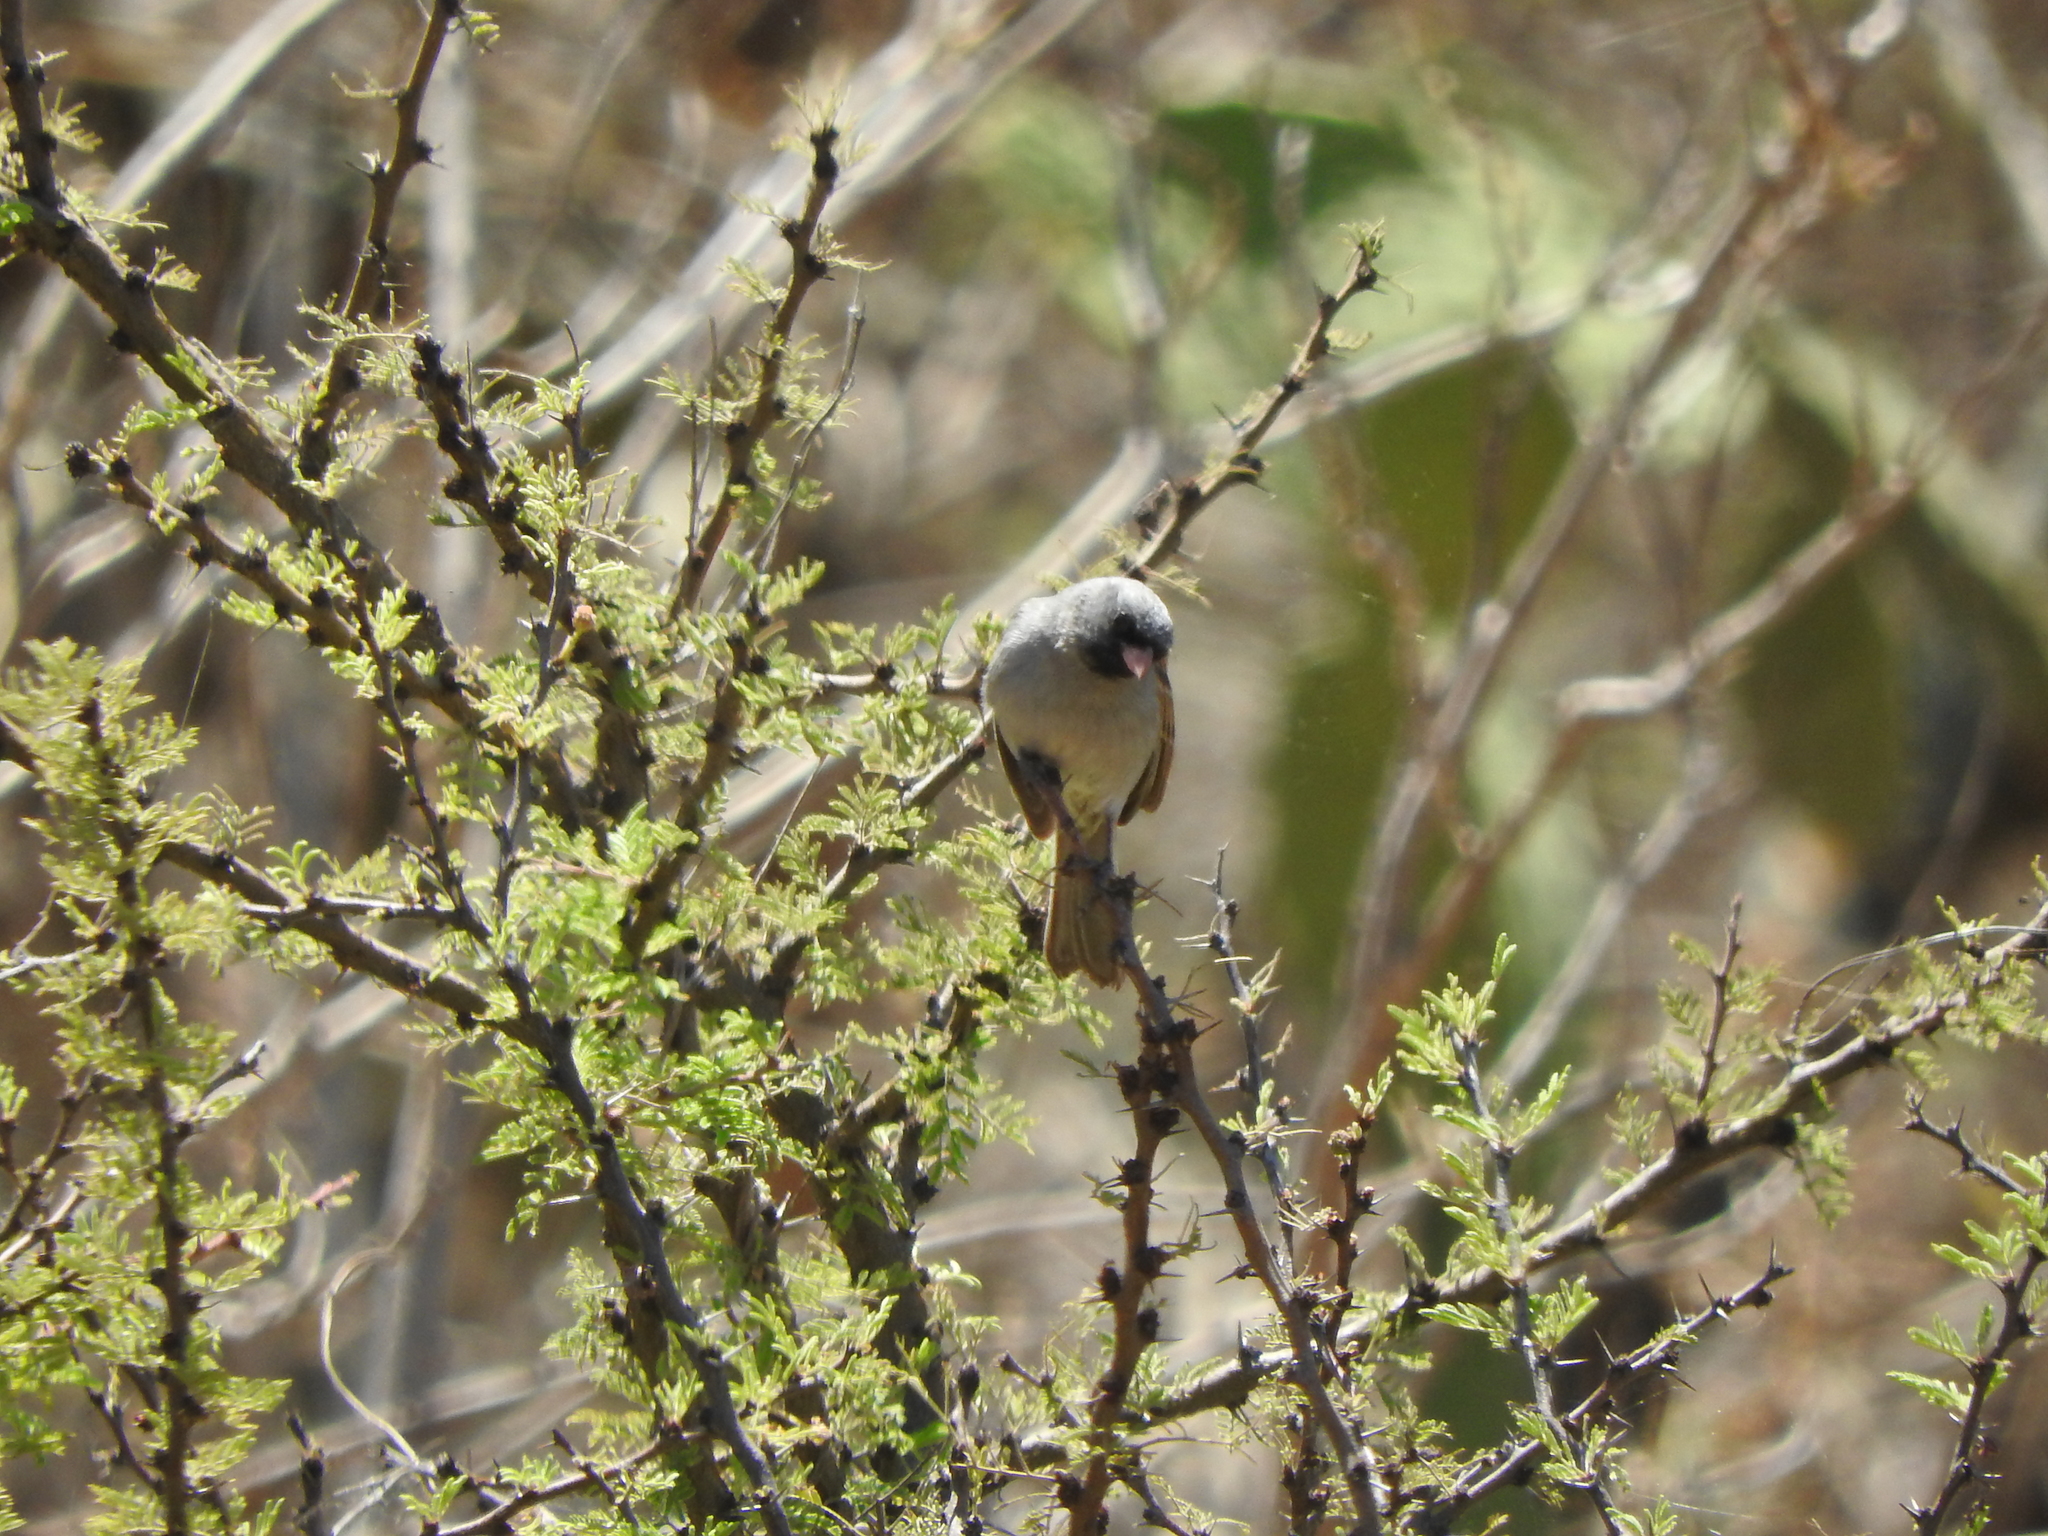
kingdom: Animalia
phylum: Chordata
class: Aves
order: Passeriformes
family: Passerellidae
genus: Spizella
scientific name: Spizella atrogularis
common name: Black-chinned sparrow
